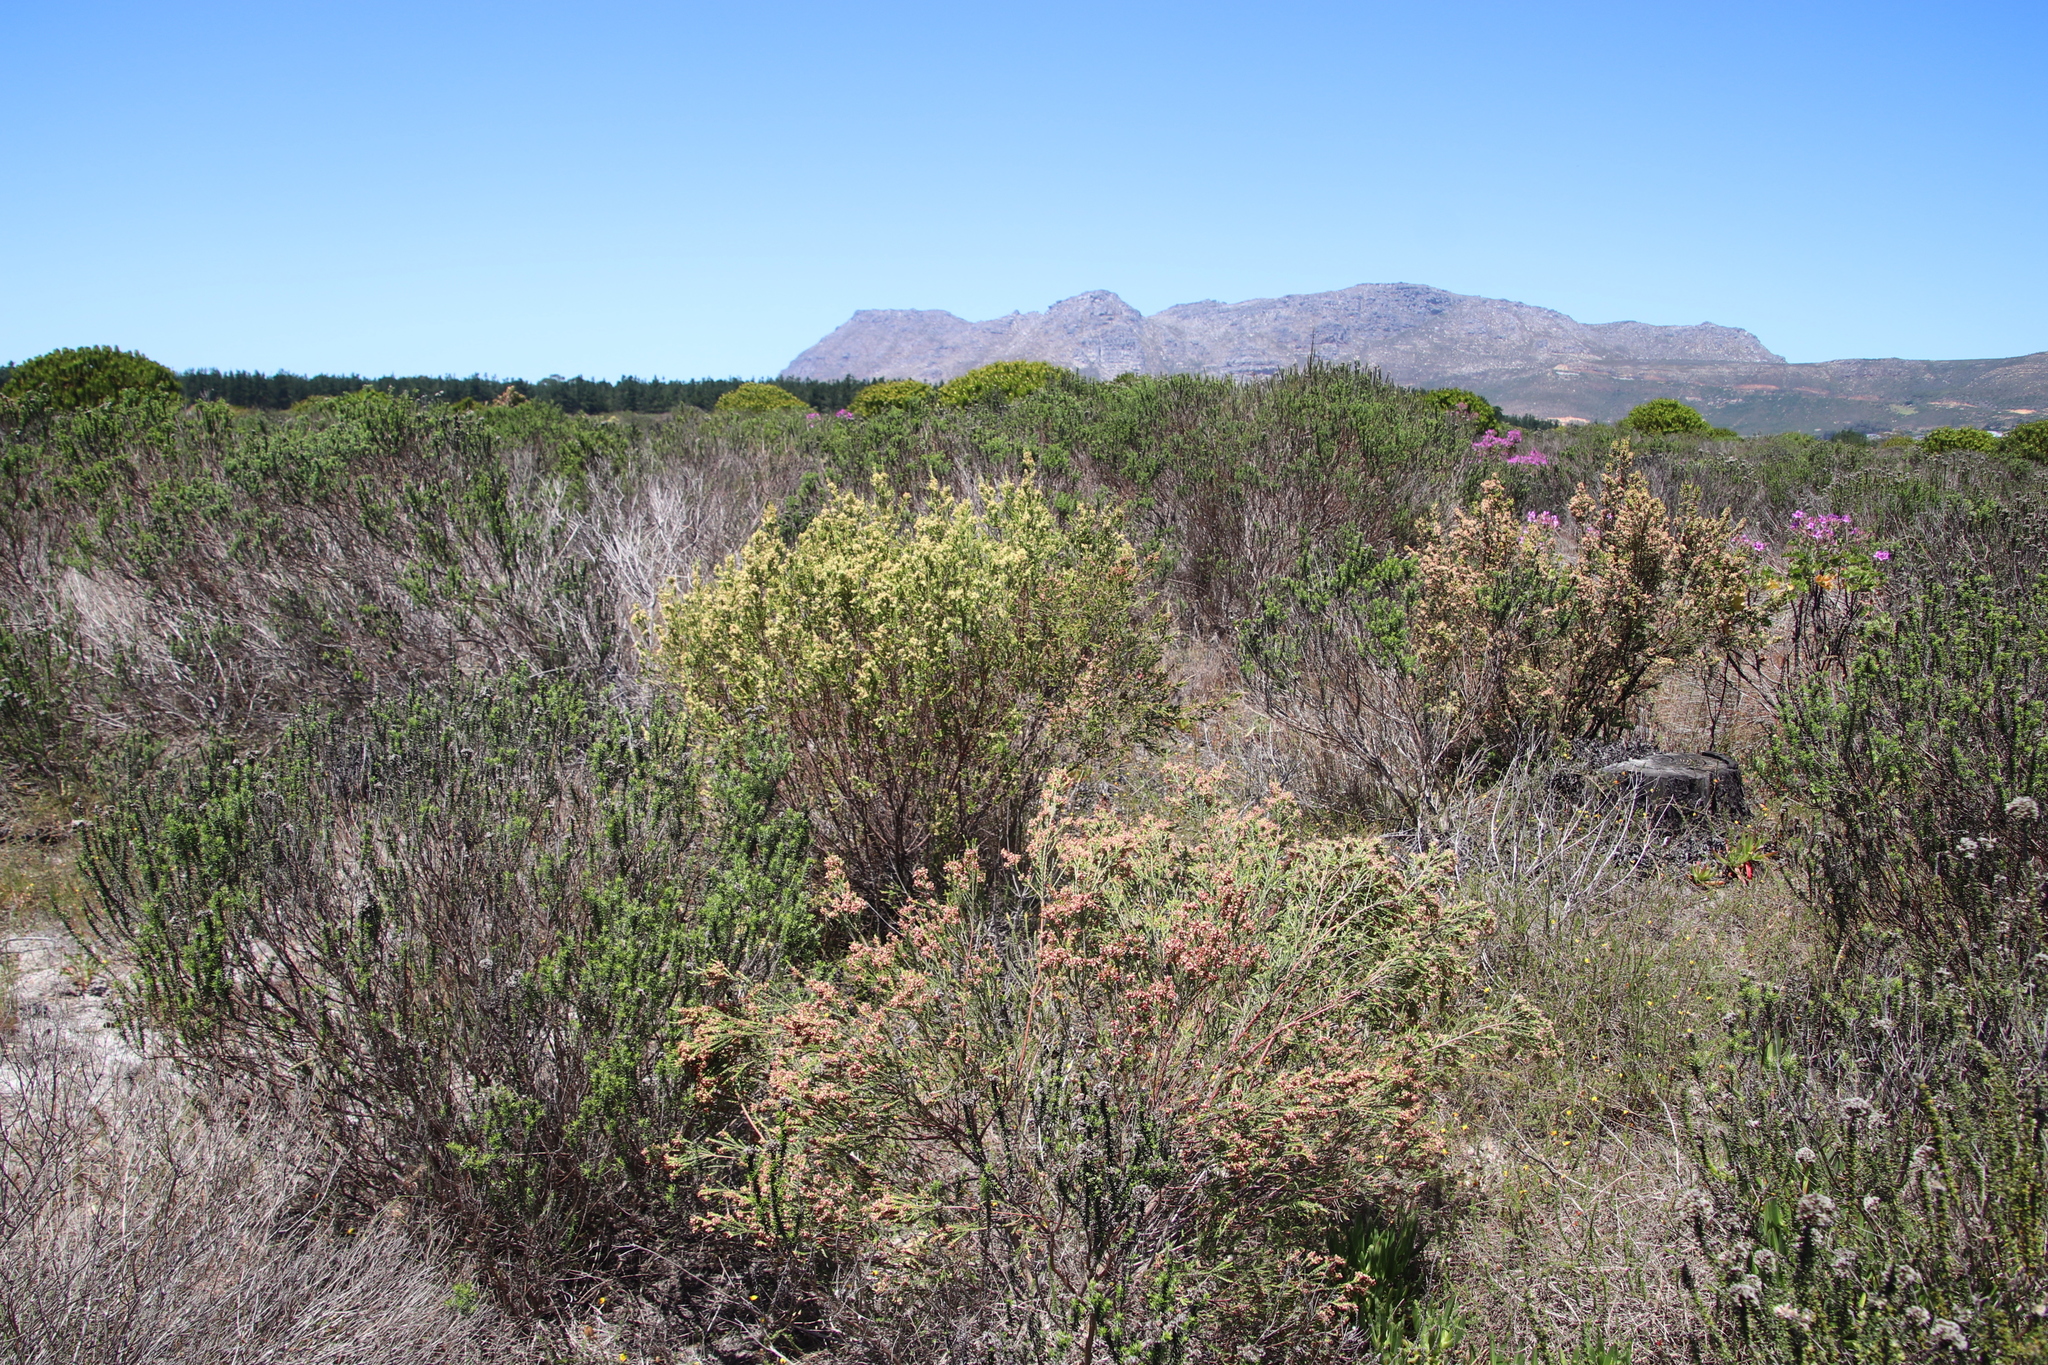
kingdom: Plantae
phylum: Tracheophyta
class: Magnoliopsida
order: Malvales
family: Thymelaeaceae
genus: Passerina
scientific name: Passerina corymbosa
